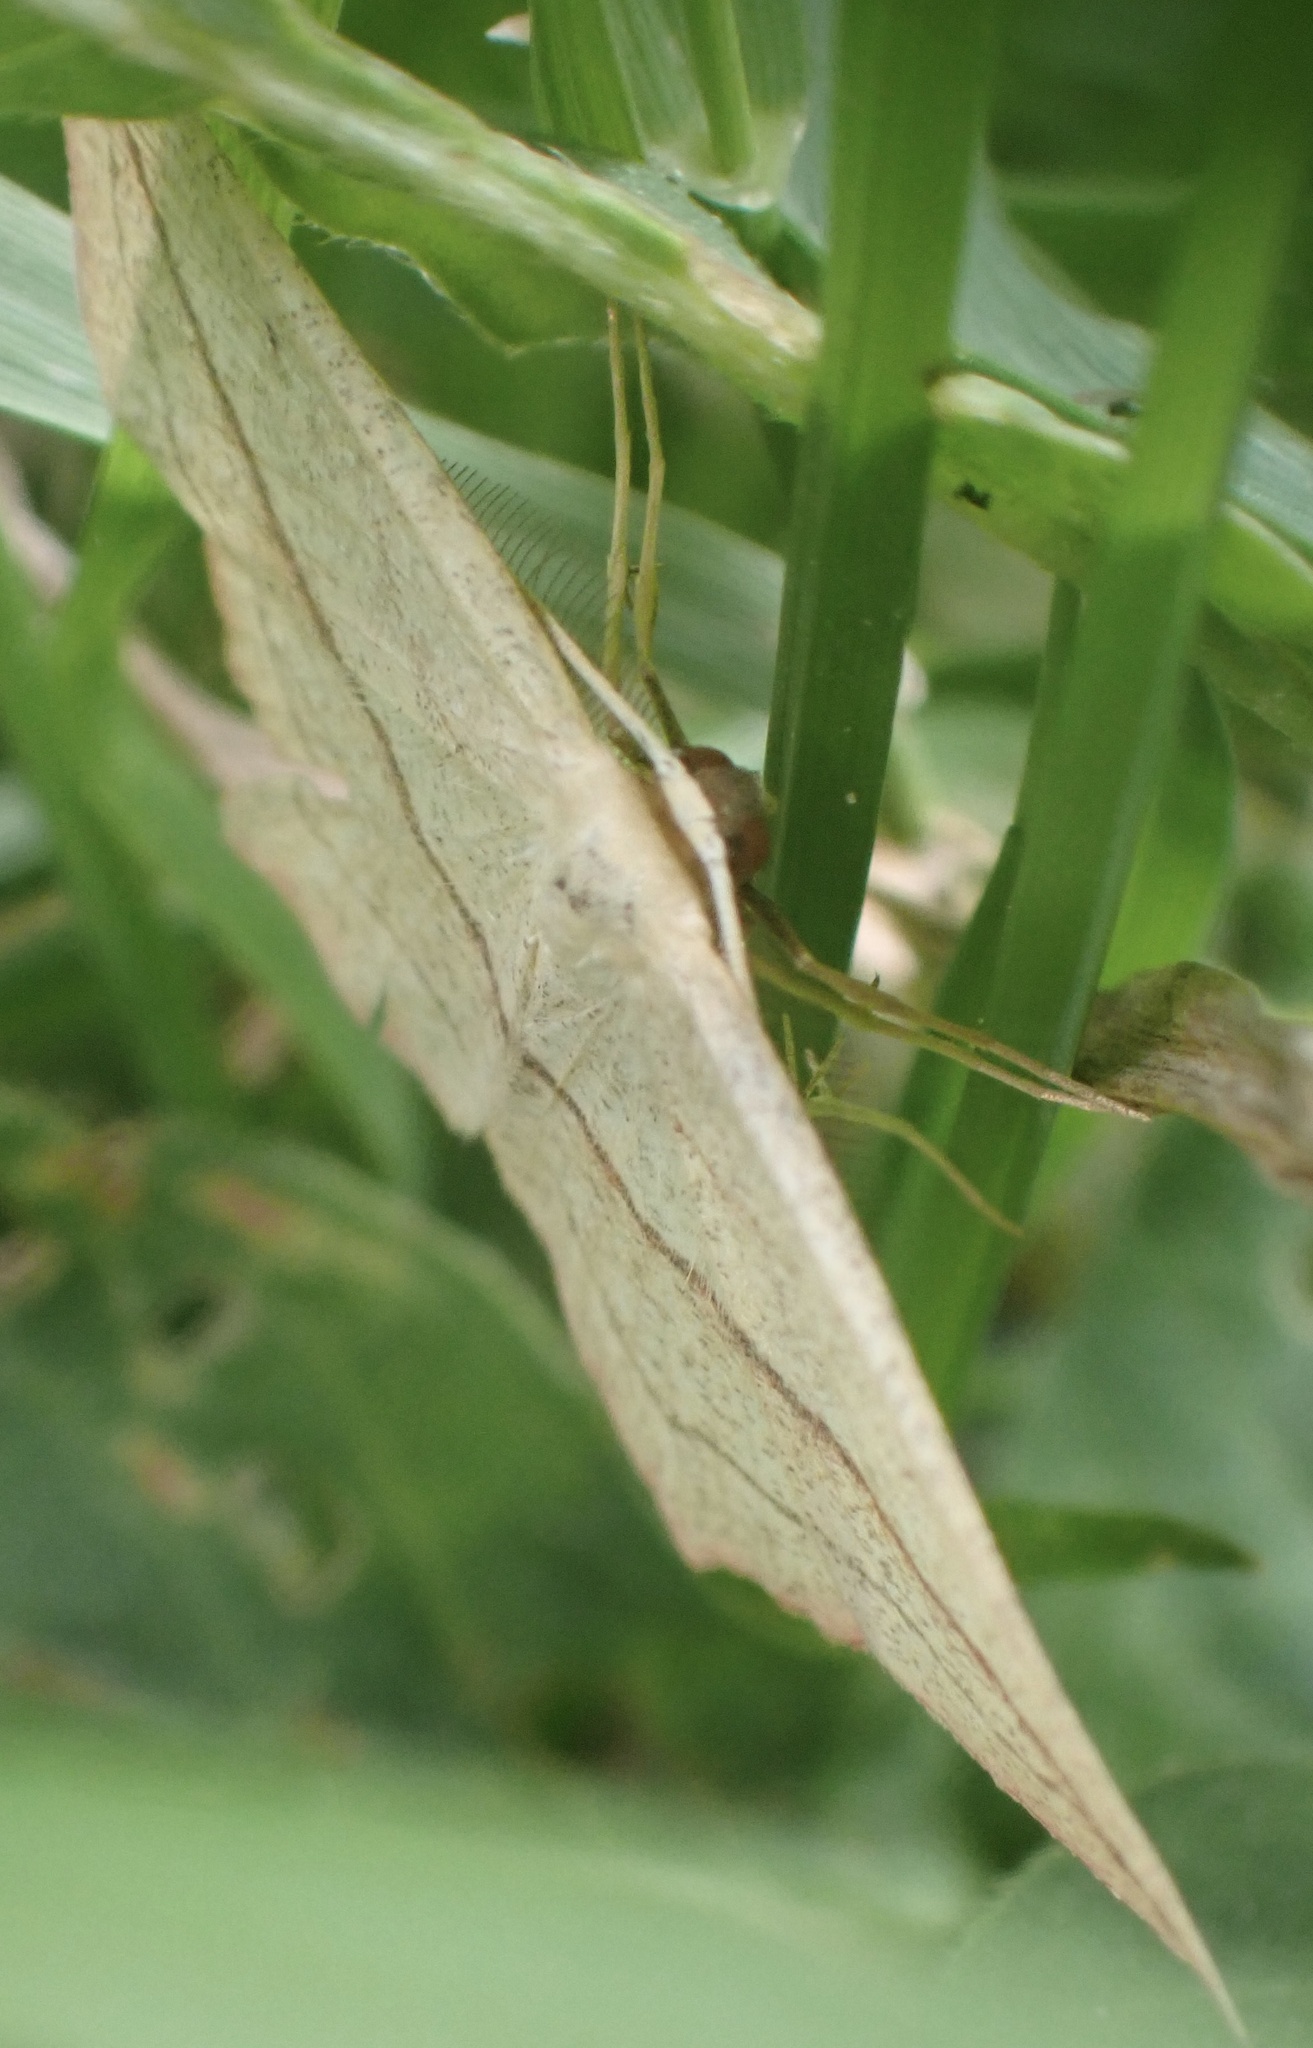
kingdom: Animalia
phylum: Arthropoda
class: Insecta
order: Lepidoptera
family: Geometridae
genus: Timandra
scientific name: Timandra comae
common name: Blood-vein
